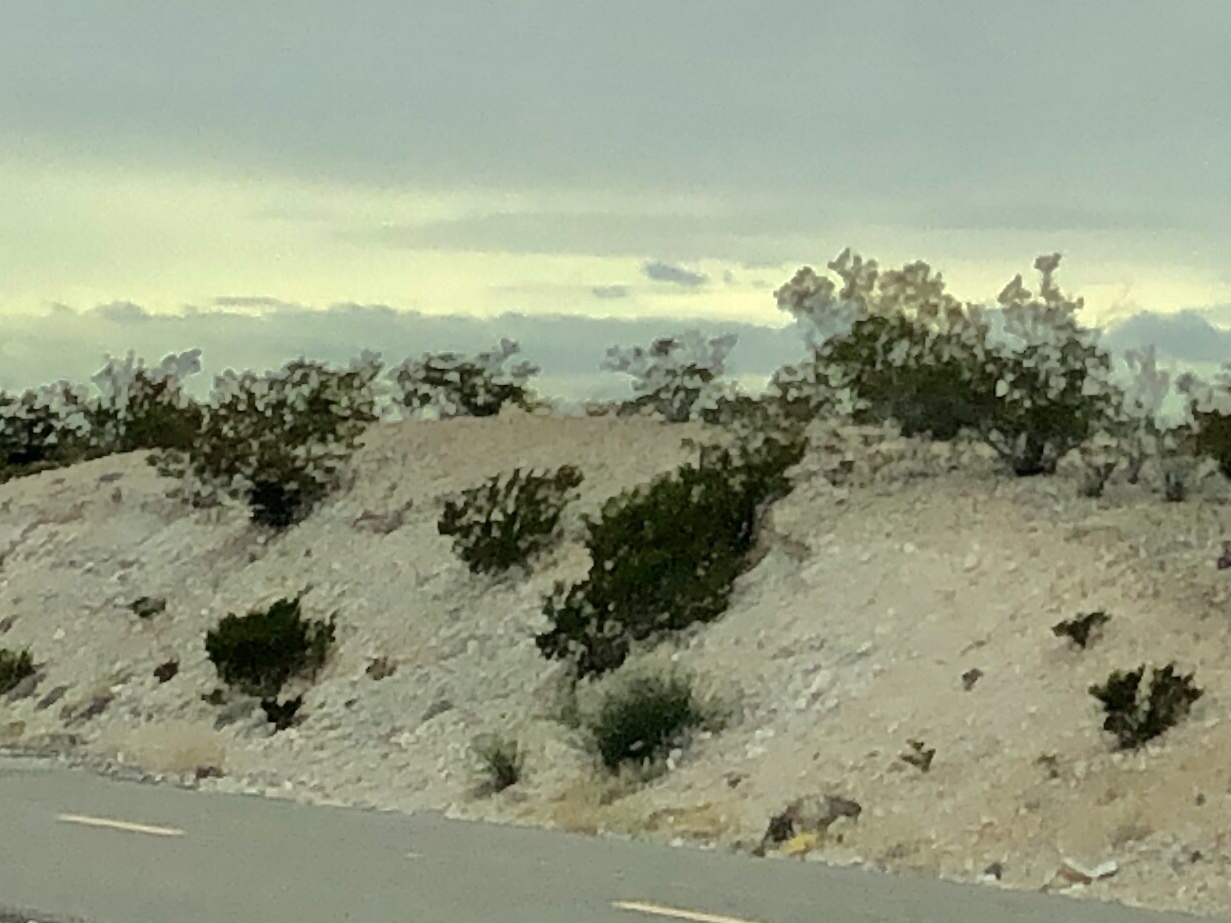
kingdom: Plantae
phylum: Tracheophyta
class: Magnoliopsida
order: Zygophyllales
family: Zygophyllaceae
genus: Larrea
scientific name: Larrea tridentata
